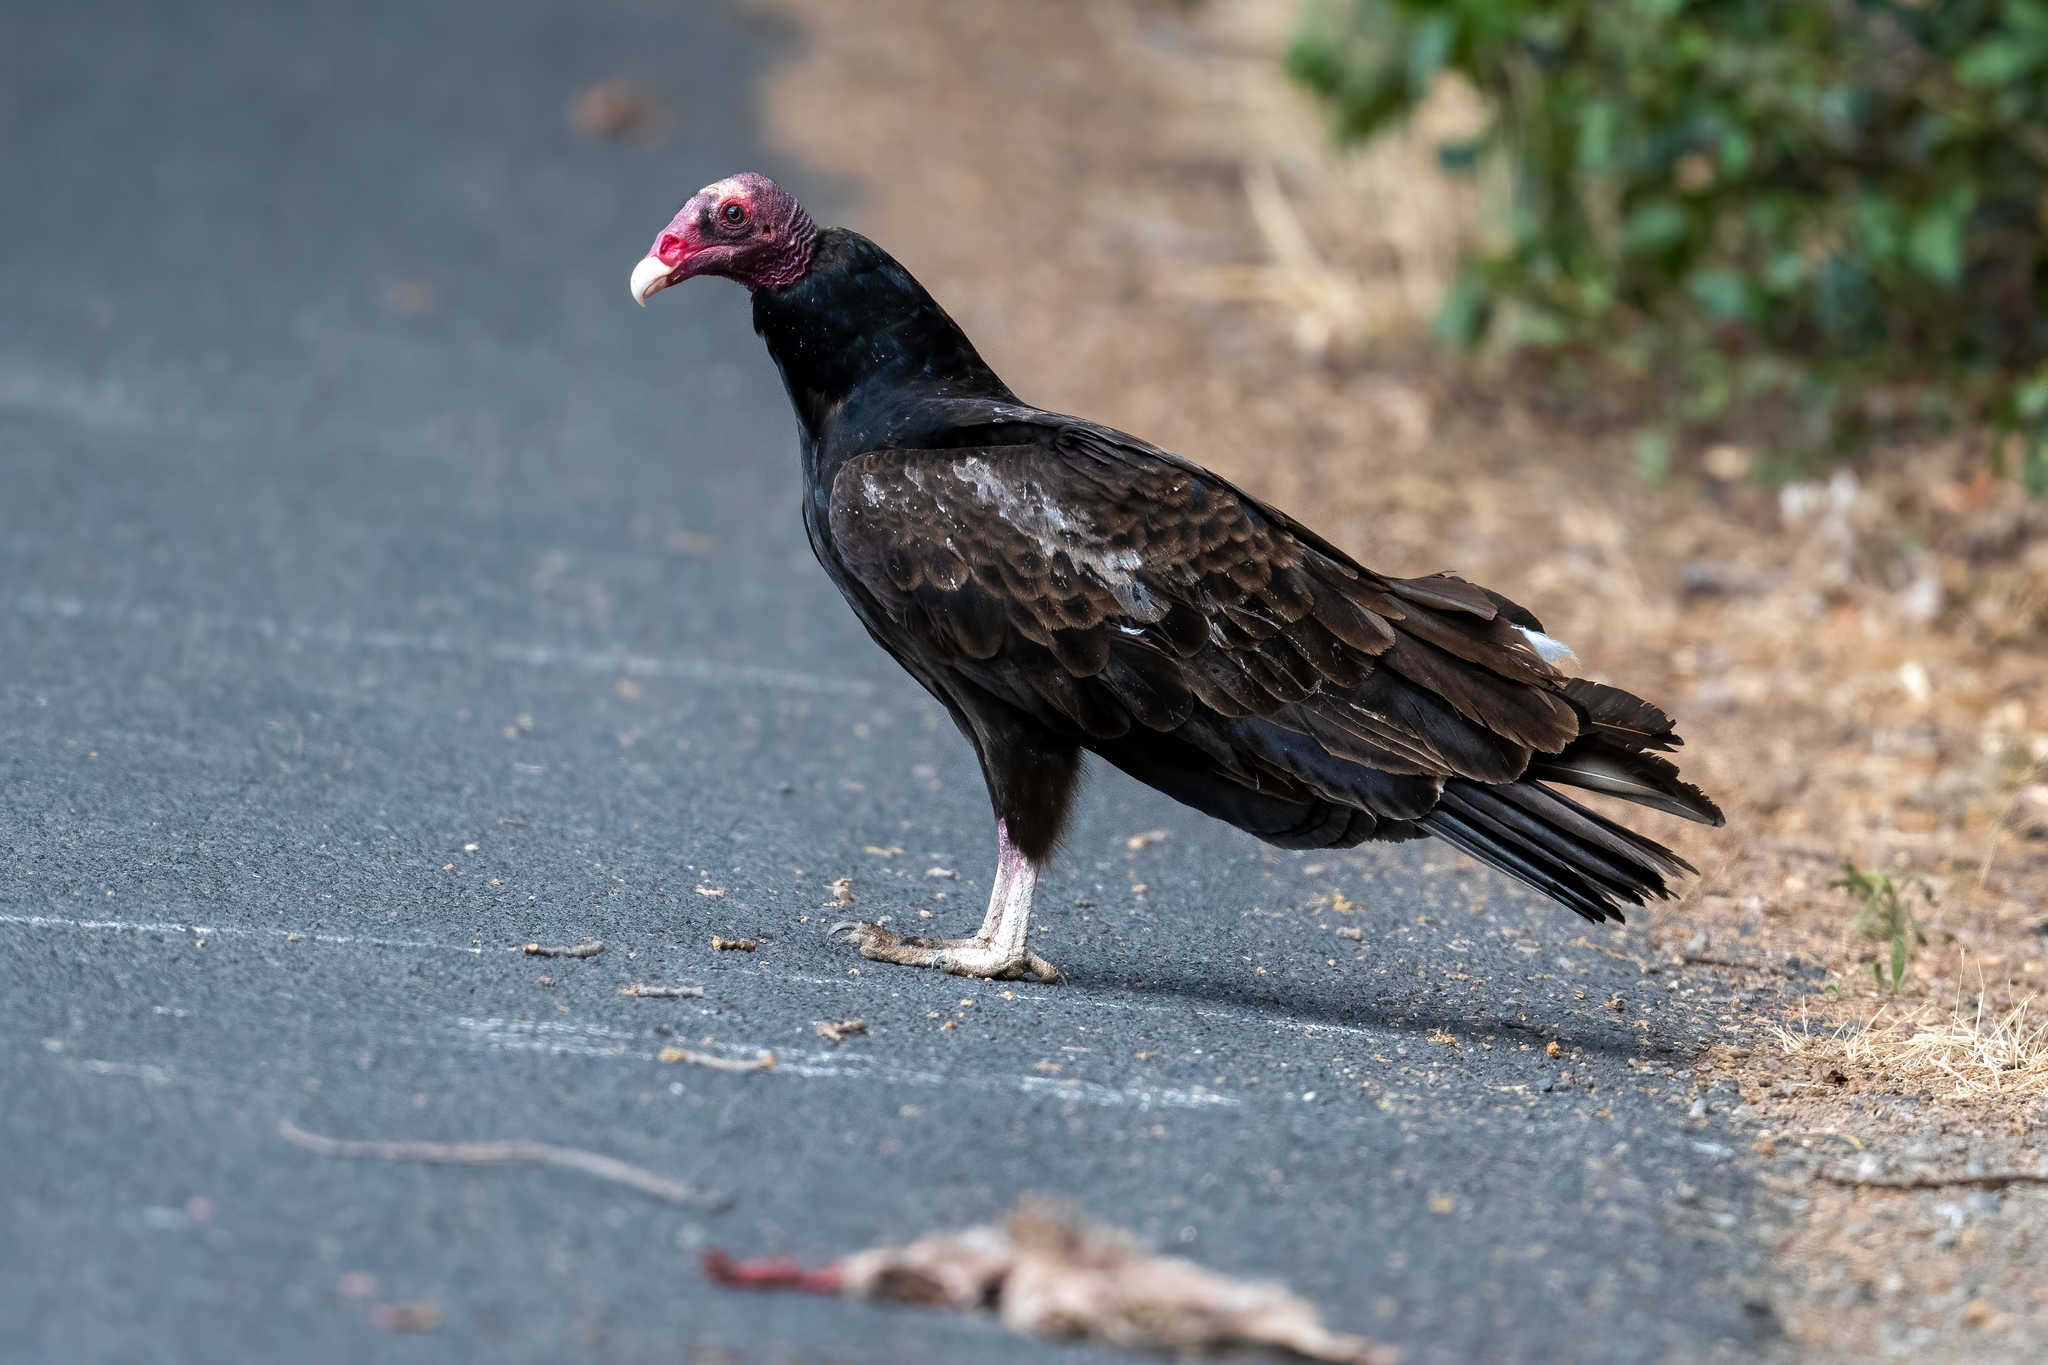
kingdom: Animalia
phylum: Chordata
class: Aves
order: Accipitriformes
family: Cathartidae
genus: Cathartes
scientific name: Cathartes aura
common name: Turkey vulture
